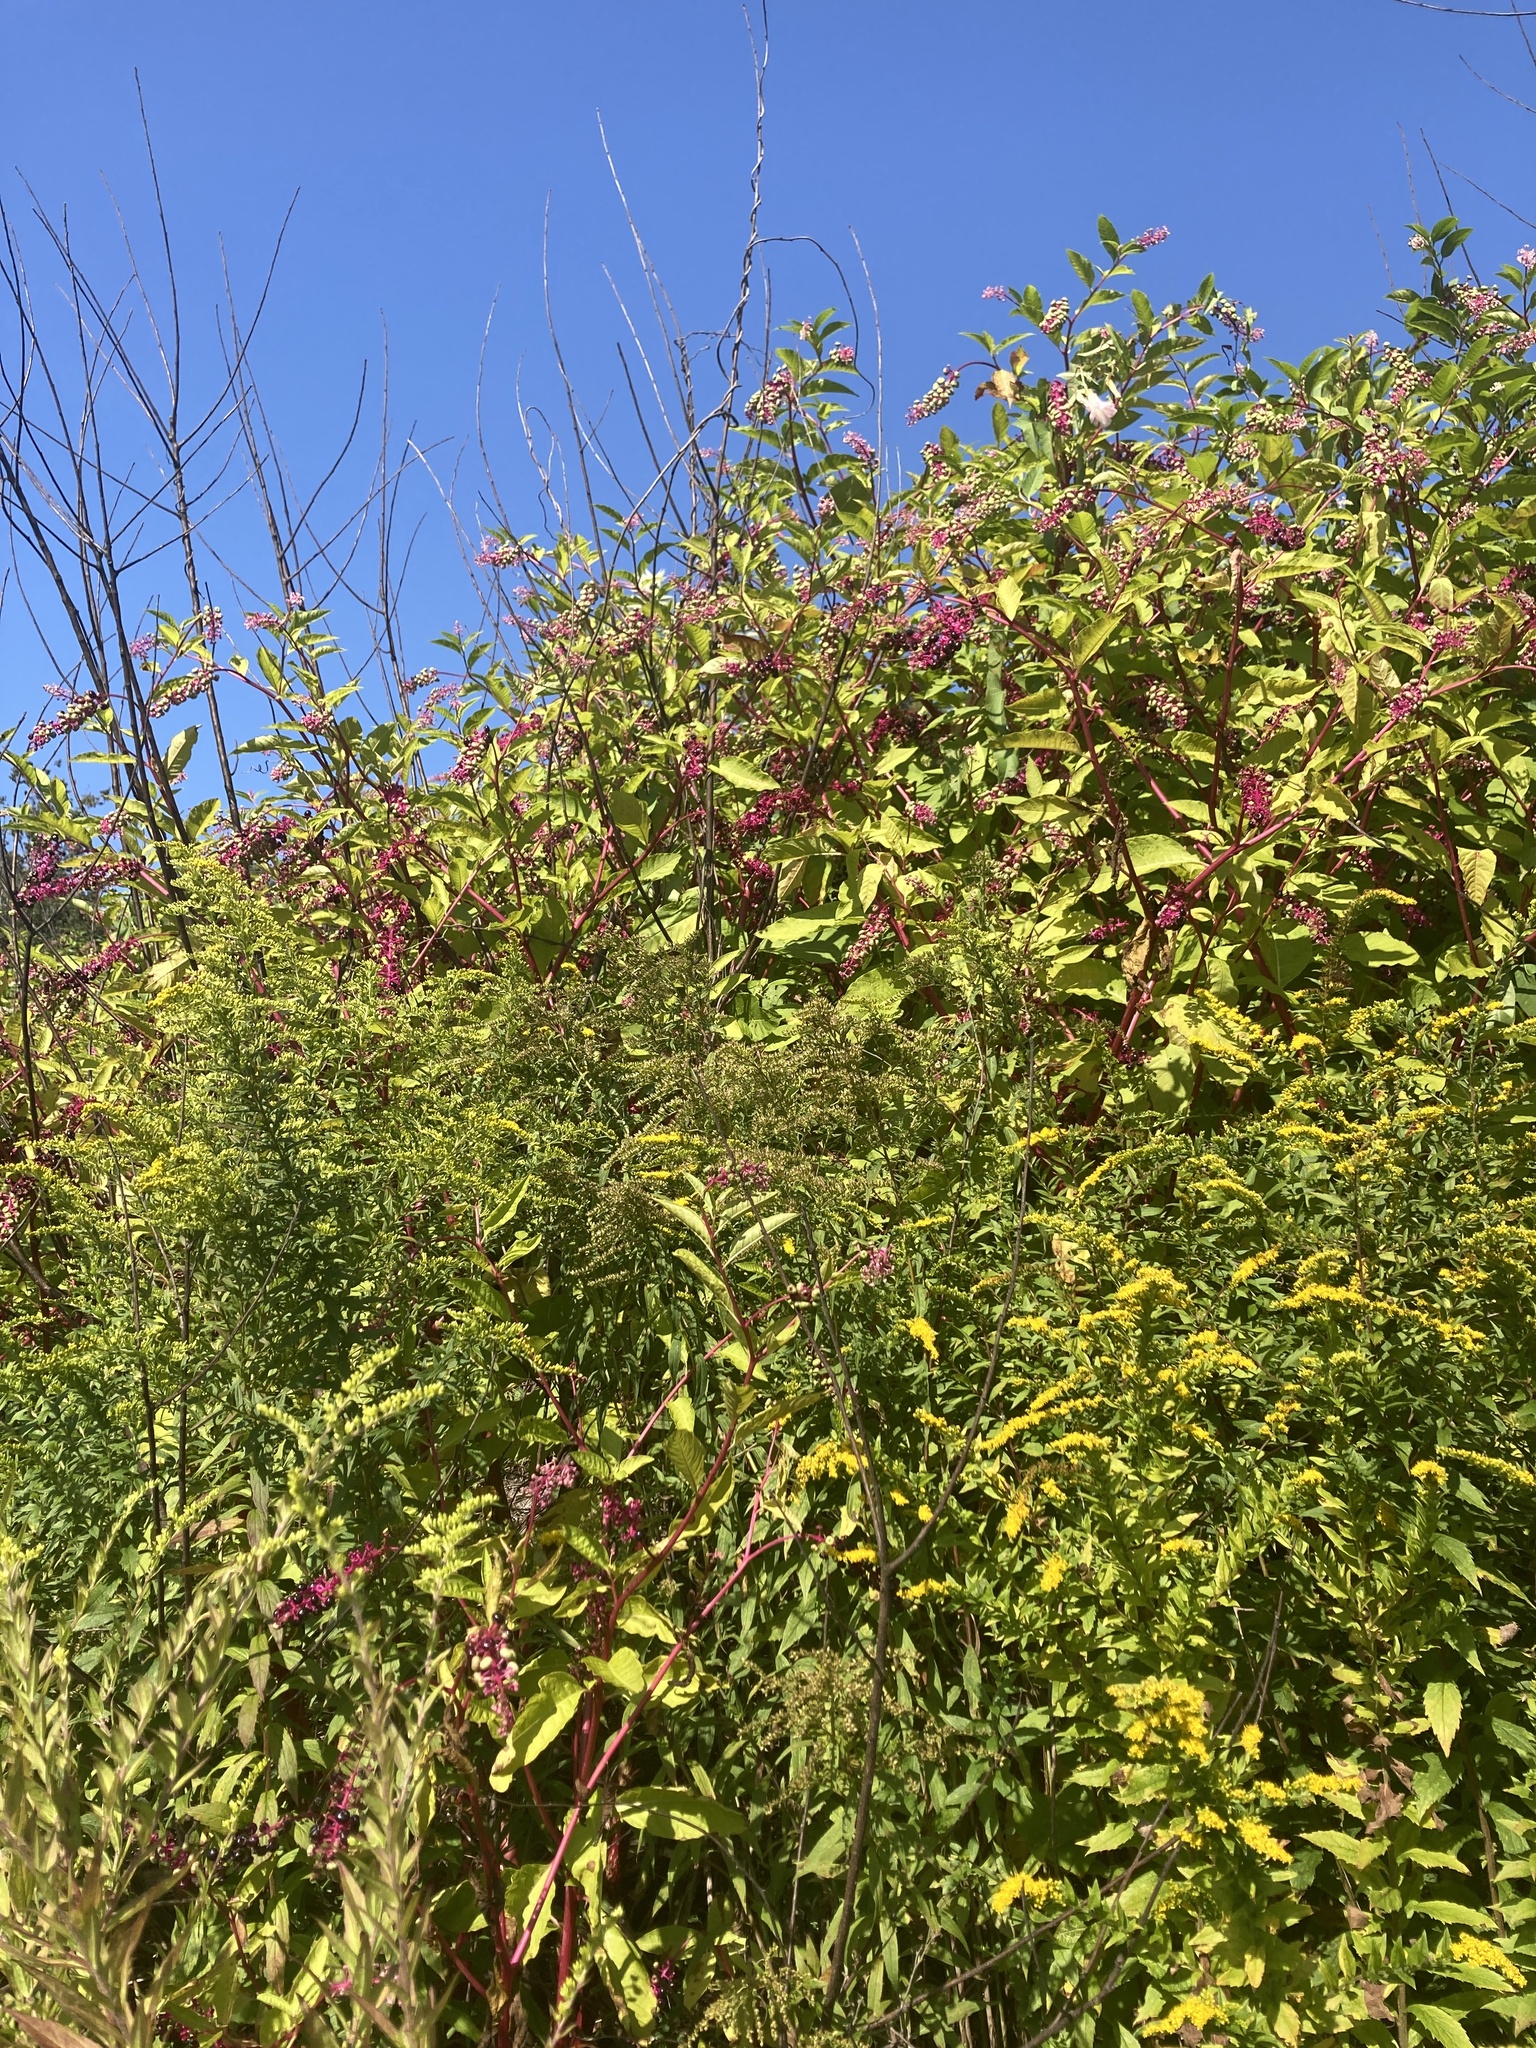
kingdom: Plantae
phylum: Tracheophyta
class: Magnoliopsida
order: Caryophyllales
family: Phytolaccaceae
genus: Phytolacca
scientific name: Phytolacca americana
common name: American pokeweed
